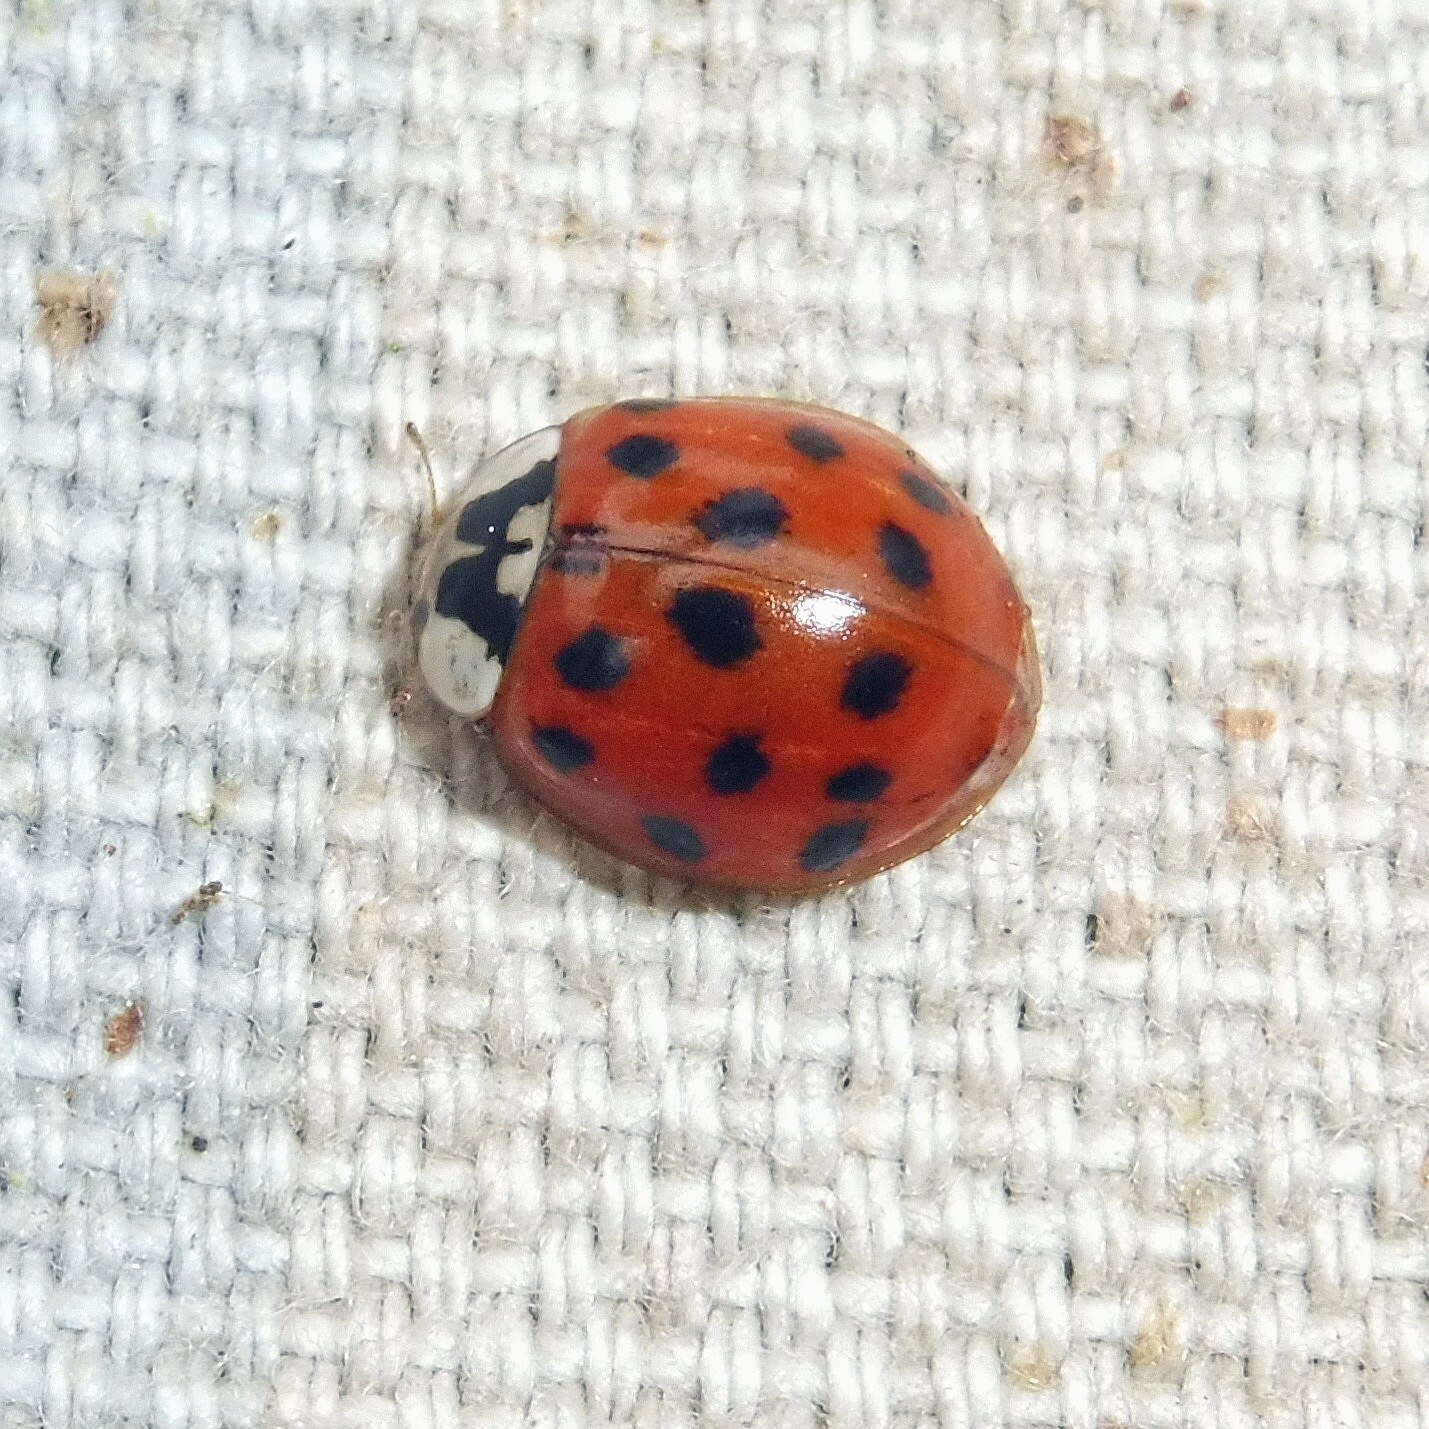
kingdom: Animalia
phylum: Arthropoda
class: Insecta
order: Coleoptera
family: Coccinellidae
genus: Harmonia
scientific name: Harmonia axyridis
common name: Harlequin ladybird
